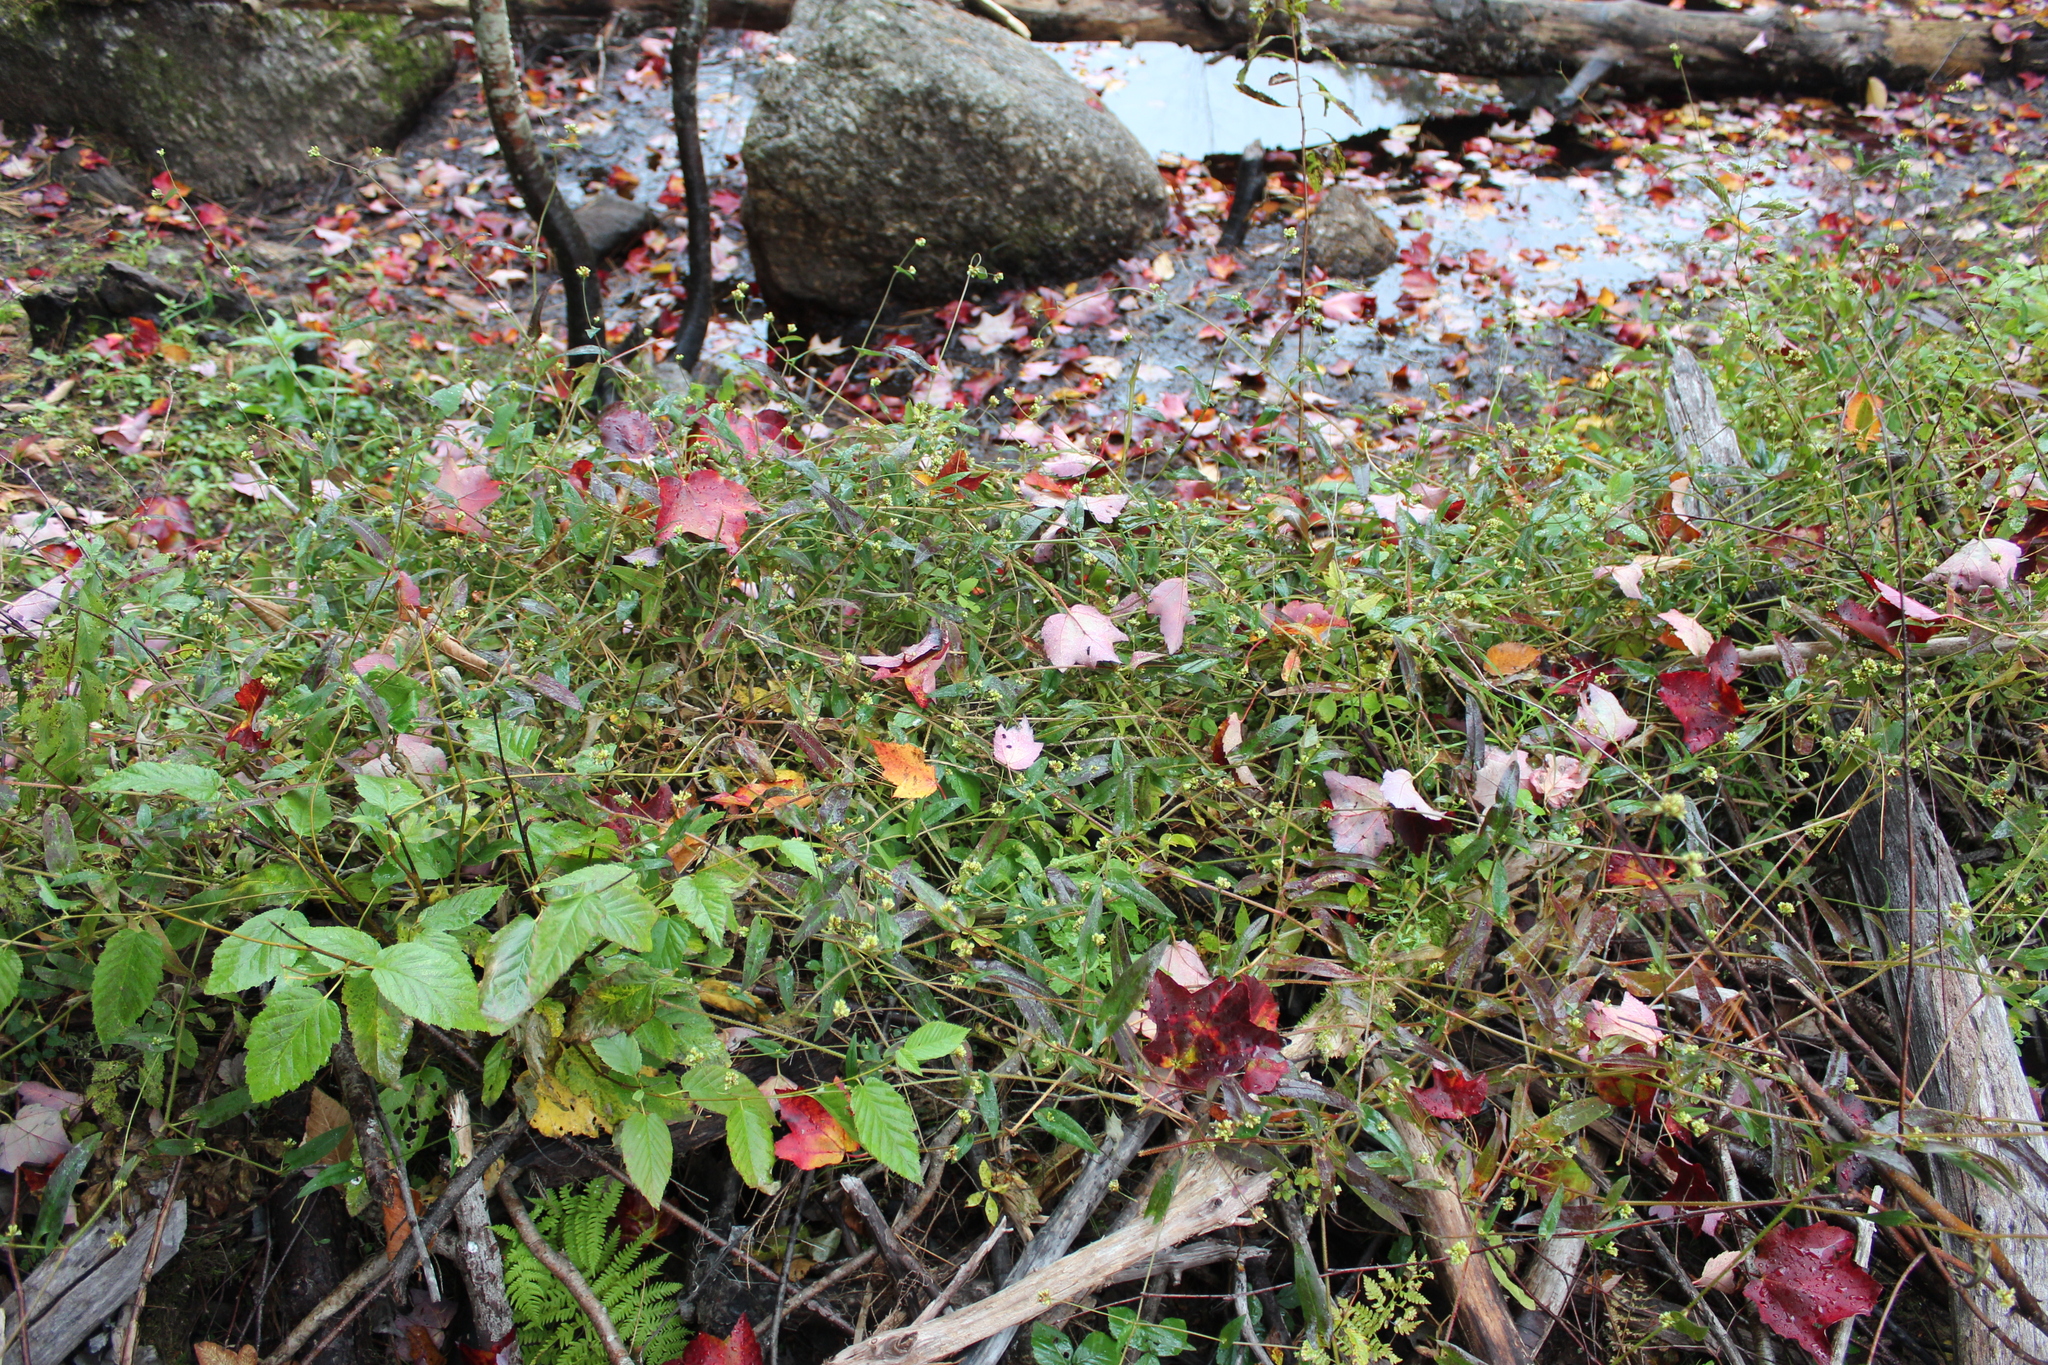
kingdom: Plantae
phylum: Tracheophyta
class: Magnoliopsida
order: Caryophyllales
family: Polygonaceae
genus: Persicaria
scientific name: Persicaria sagittata
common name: American tearthumb
